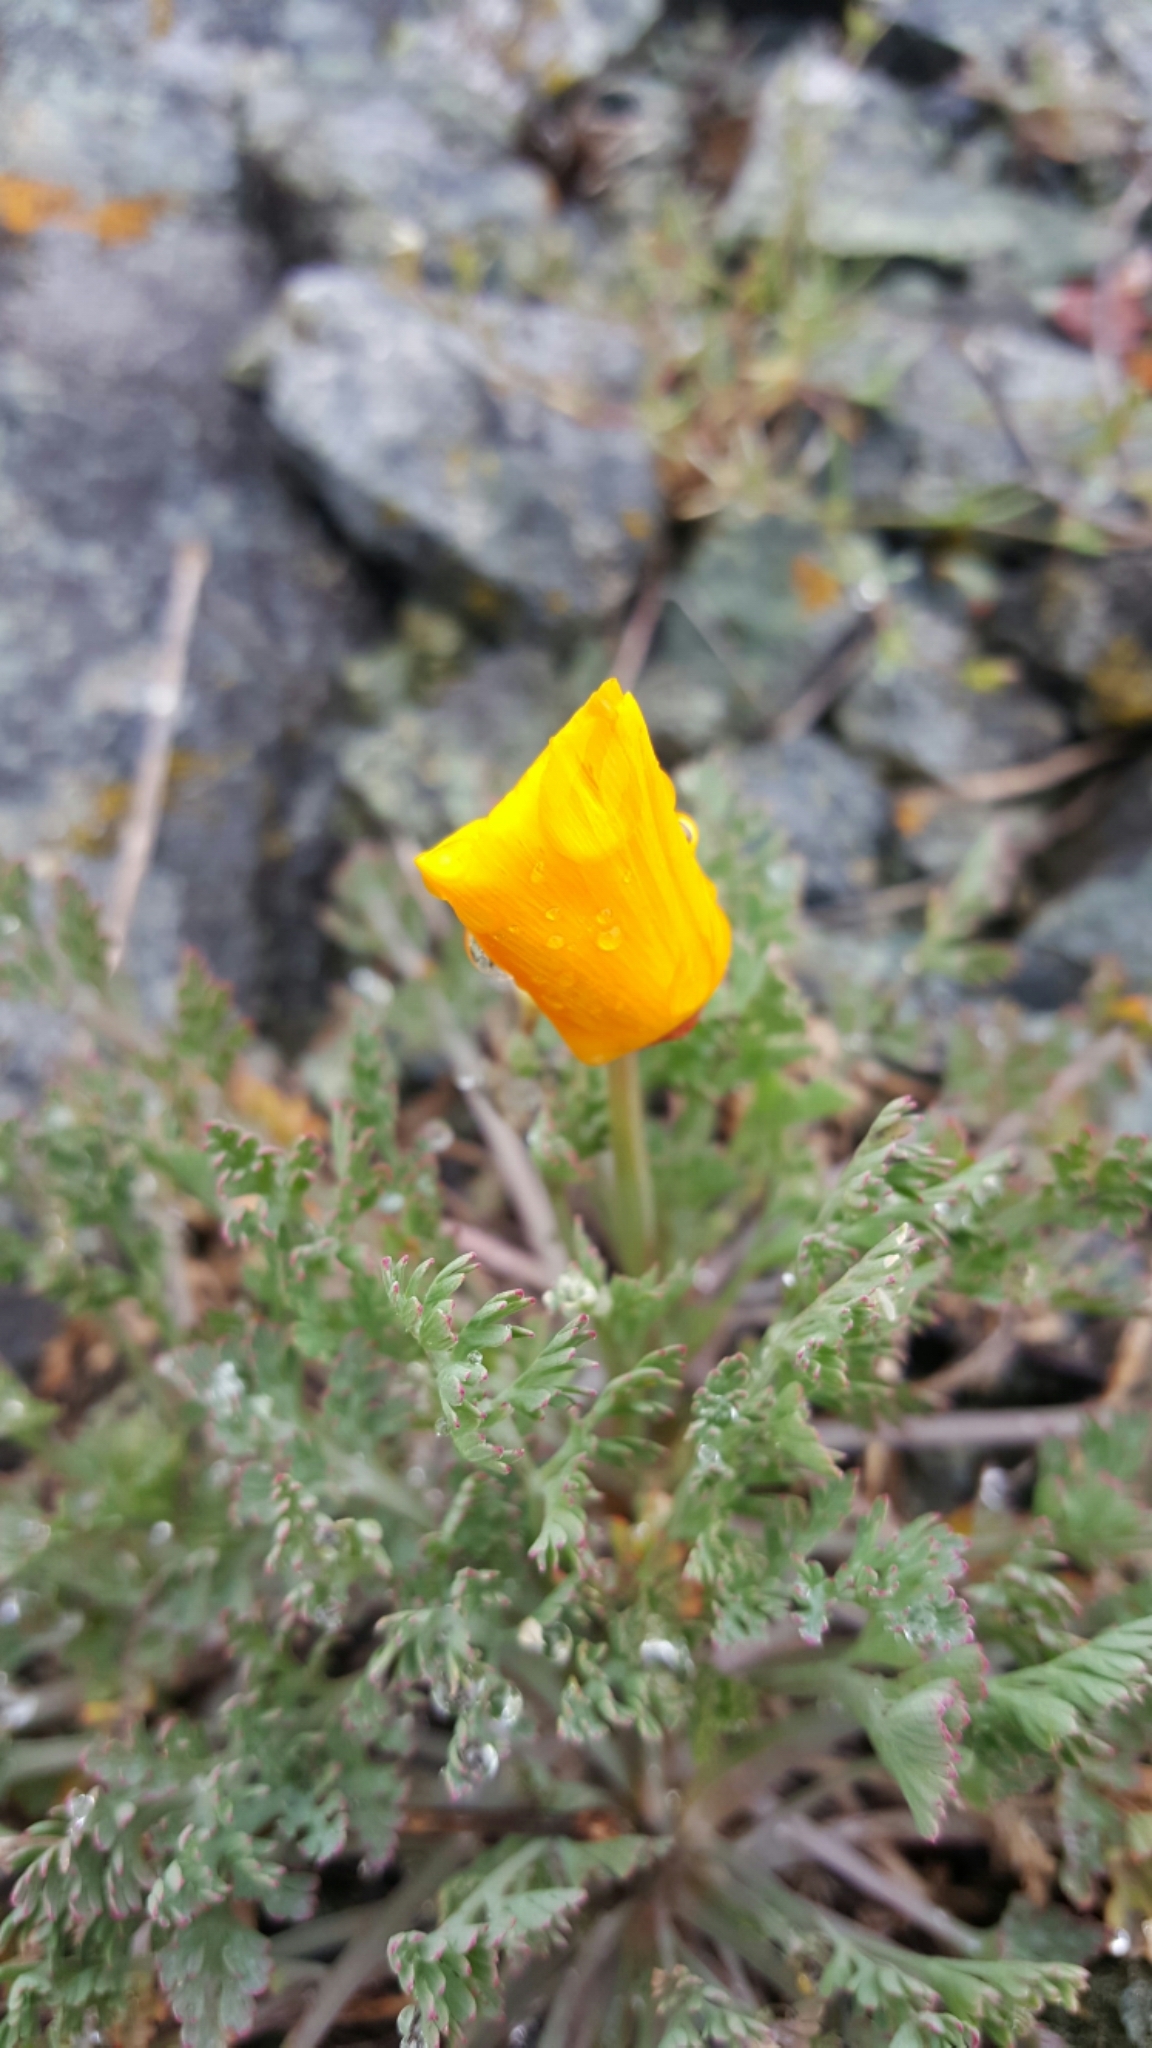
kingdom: Plantae
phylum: Tracheophyta
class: Magnoliopsida
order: Ranunculales
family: Papaveraceae
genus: Eschscholzia
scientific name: Eschscholzia californica
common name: California poppy
